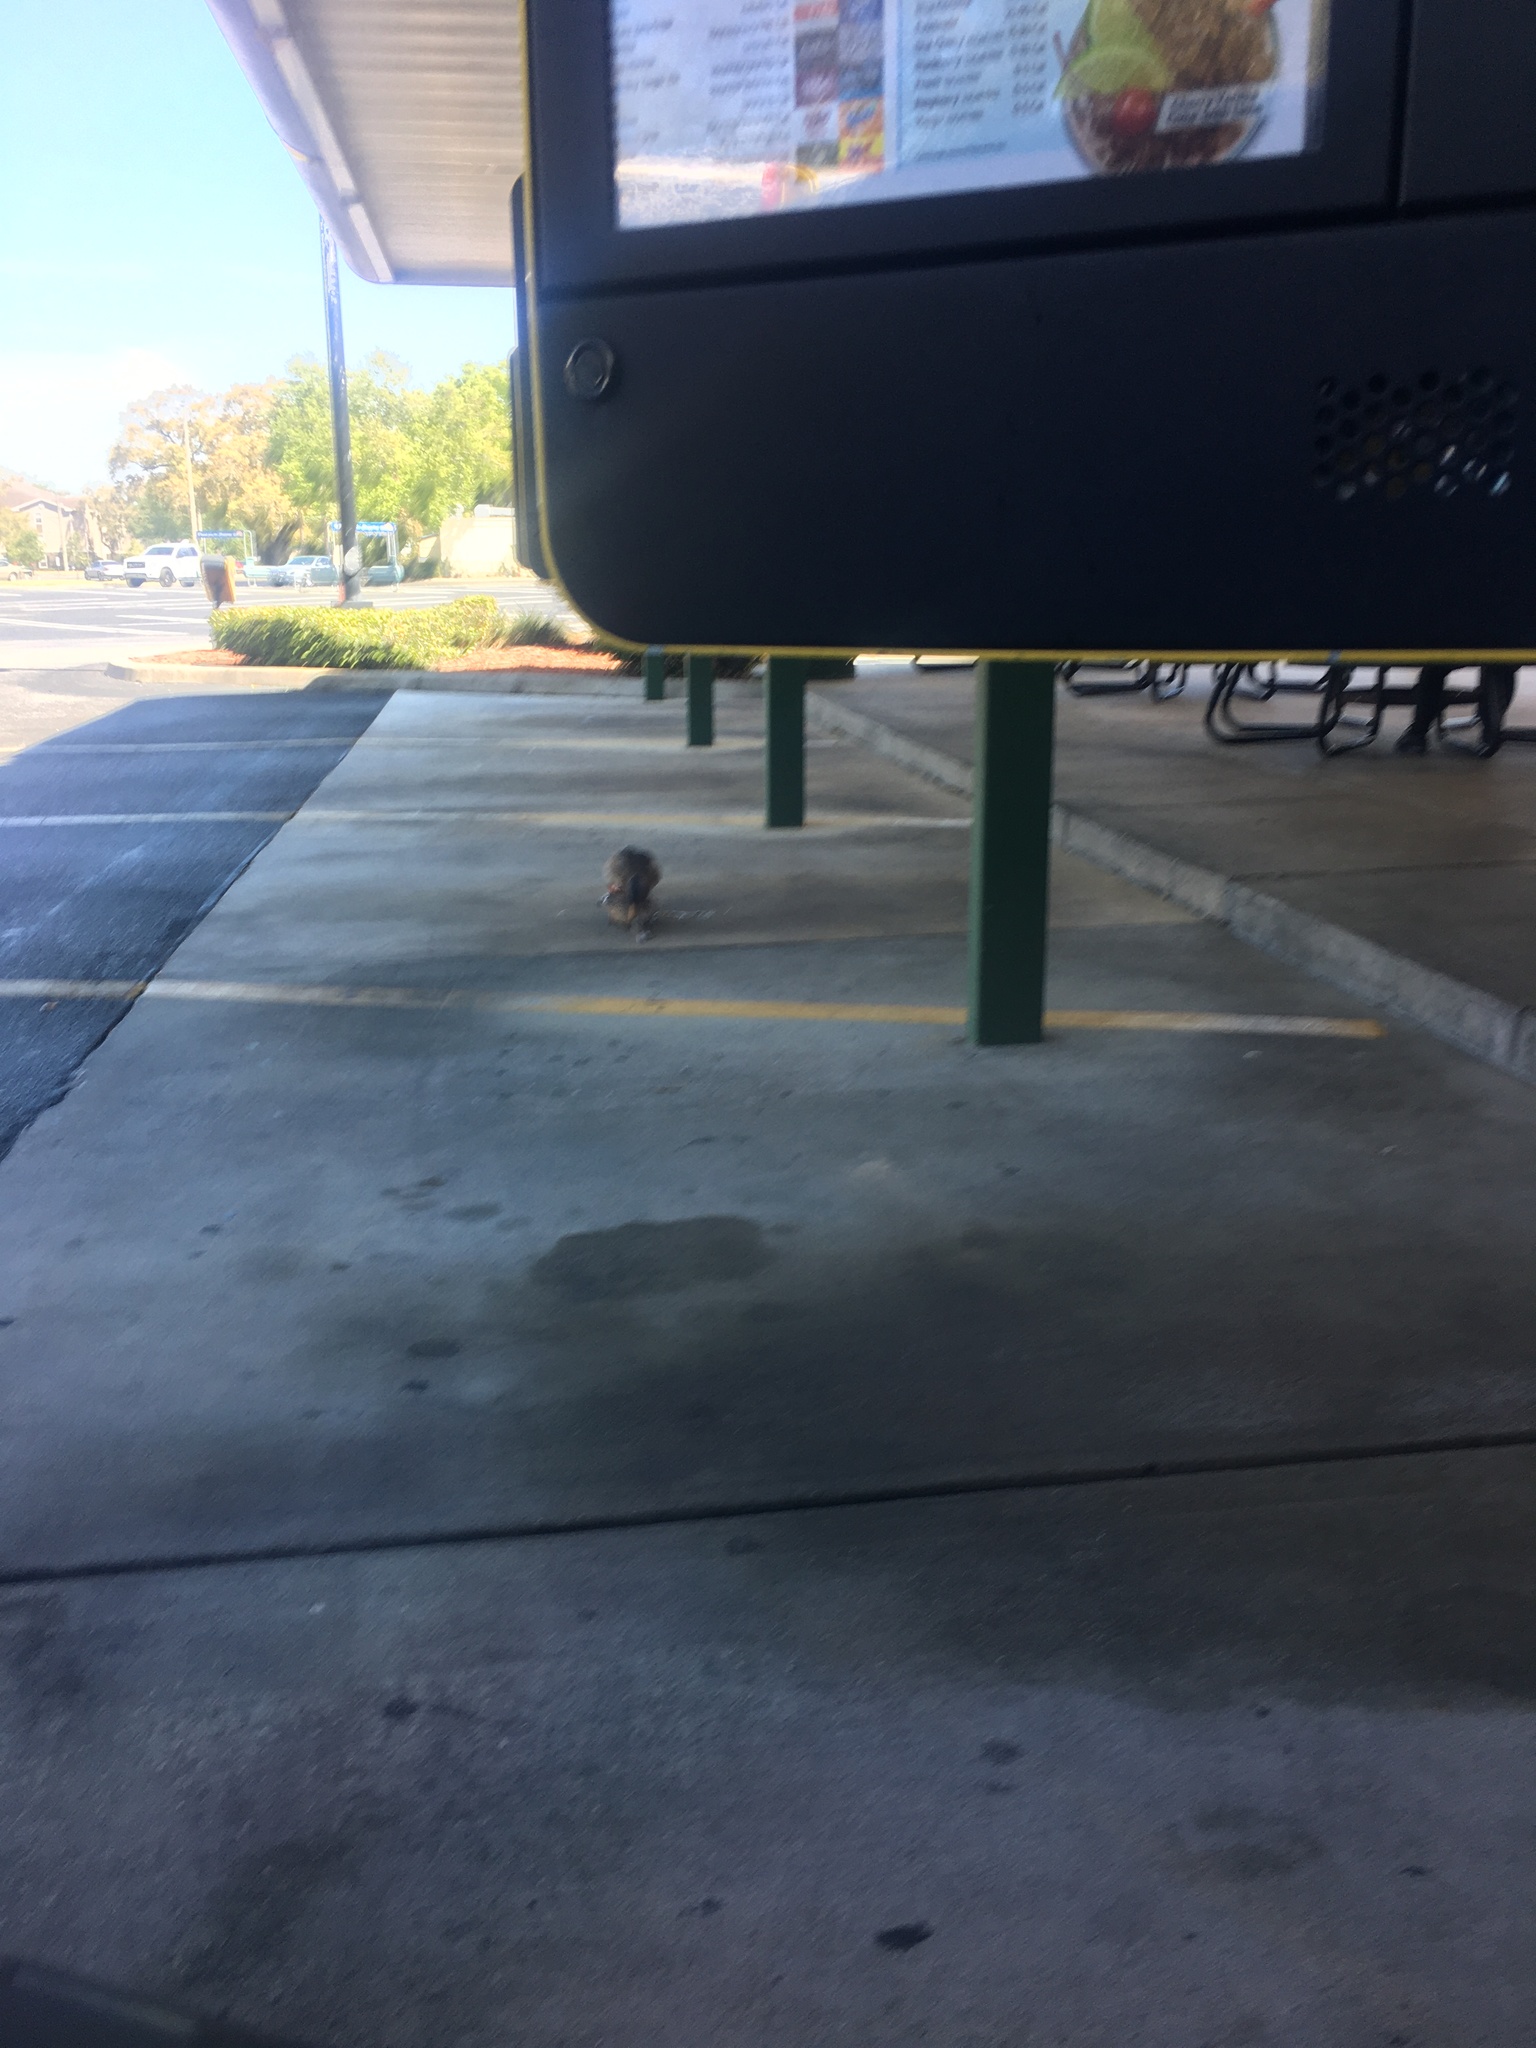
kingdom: Animalia
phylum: Chordata
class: Aves
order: Anseriformes
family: Anatidae
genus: Anas
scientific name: Anas platyrhynchos
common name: Mallard
